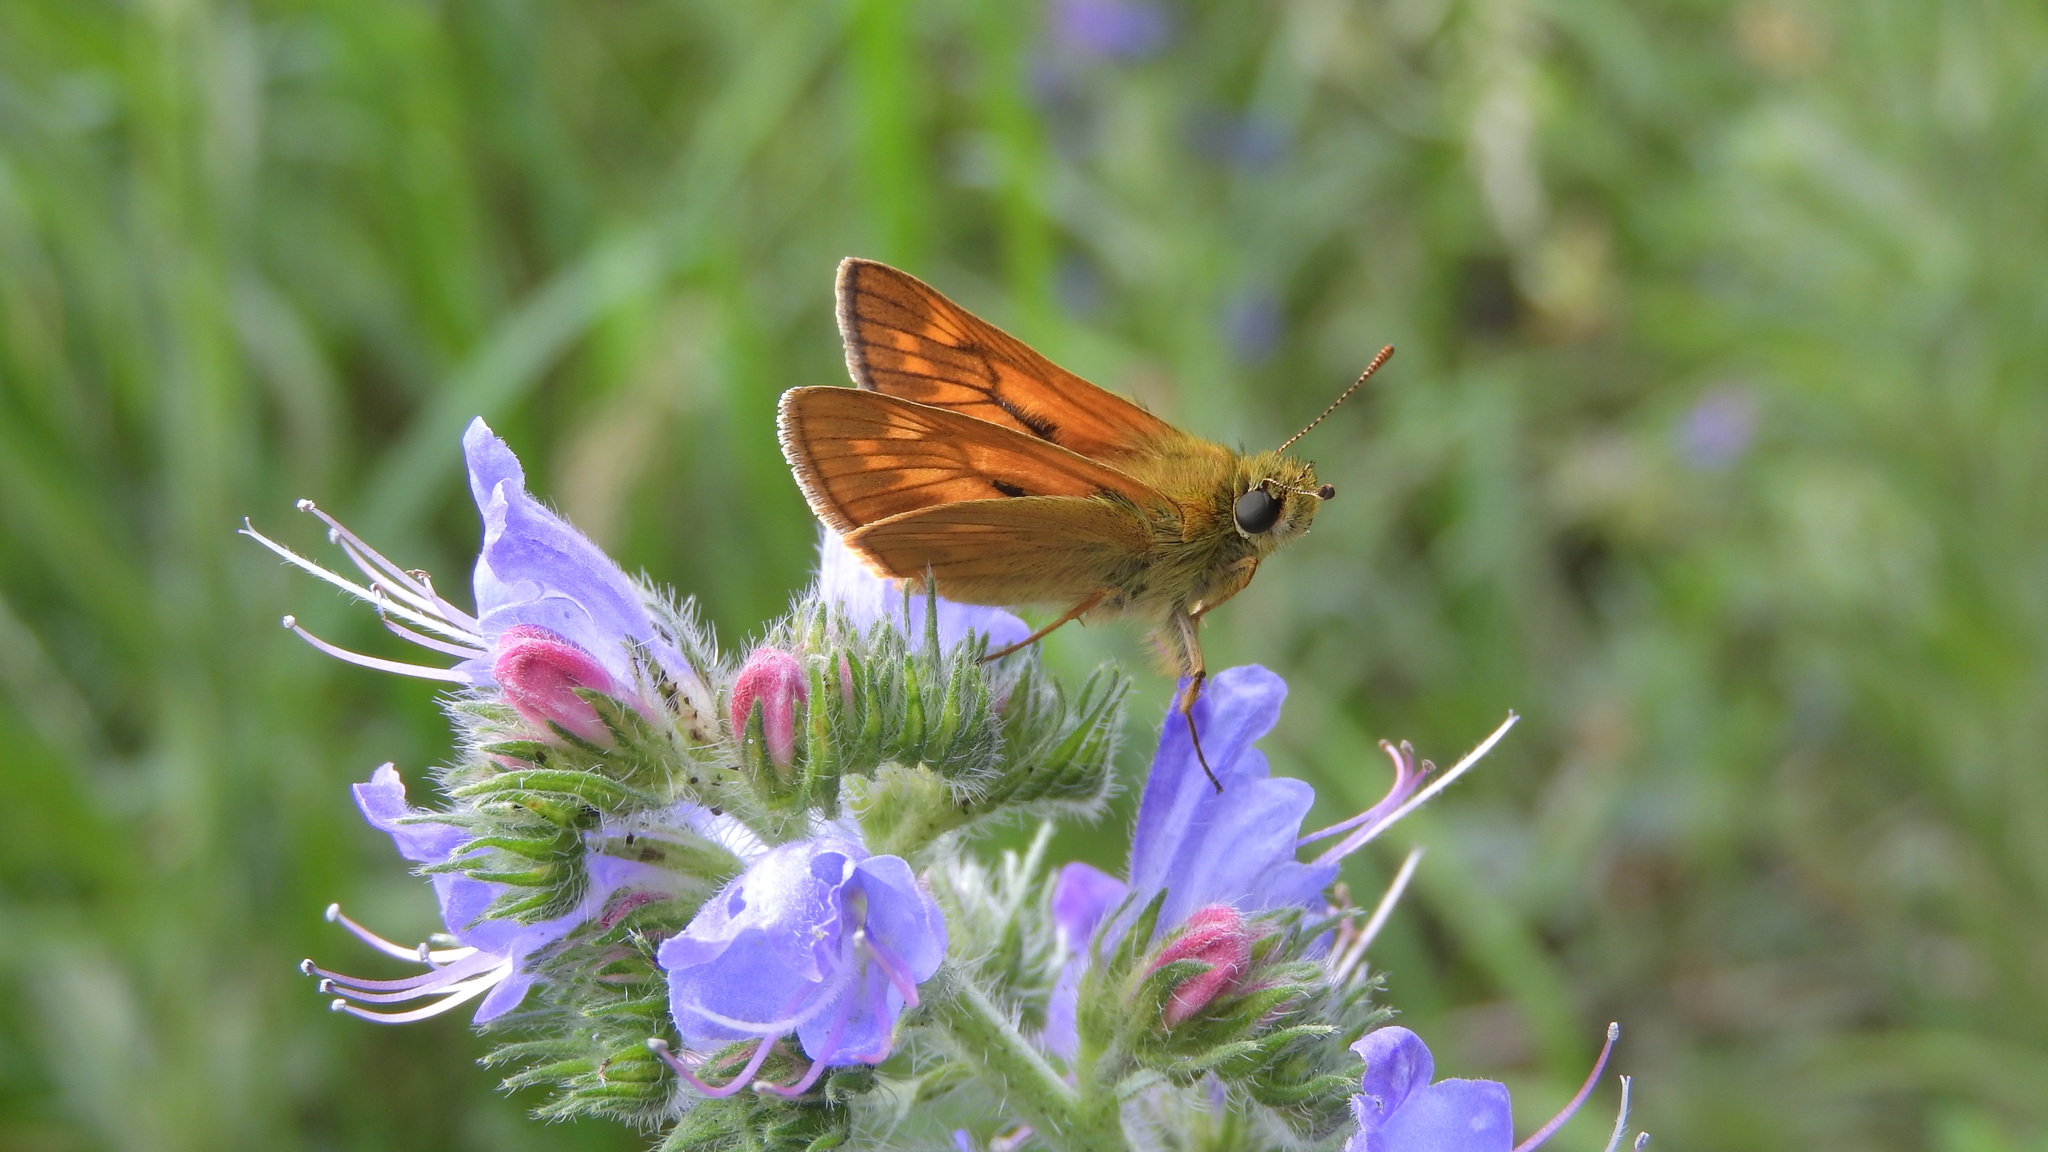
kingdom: Animalia
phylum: Arthropoda
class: Insecta
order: Lepidoptera
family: Hesperiidae
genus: Ochlodes
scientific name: Ochlodes venata
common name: Large skipper
